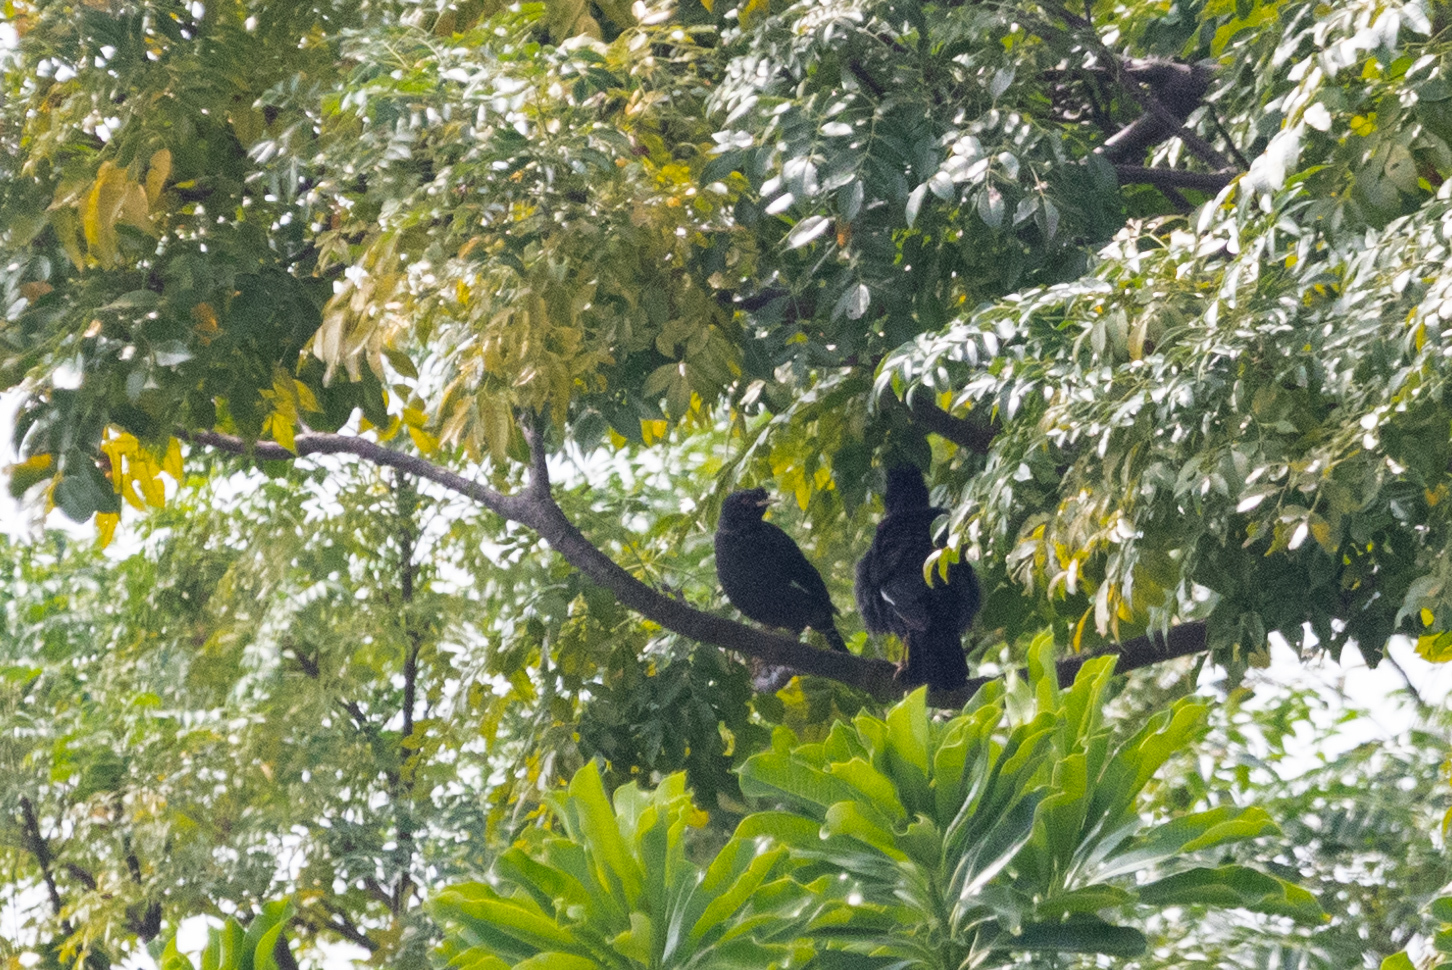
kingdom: Animalia
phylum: Chordata
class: Aves
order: Passeriformes
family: Sturnidae
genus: Acridotheres
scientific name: Acridotheres cristatellus
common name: Crested myna
